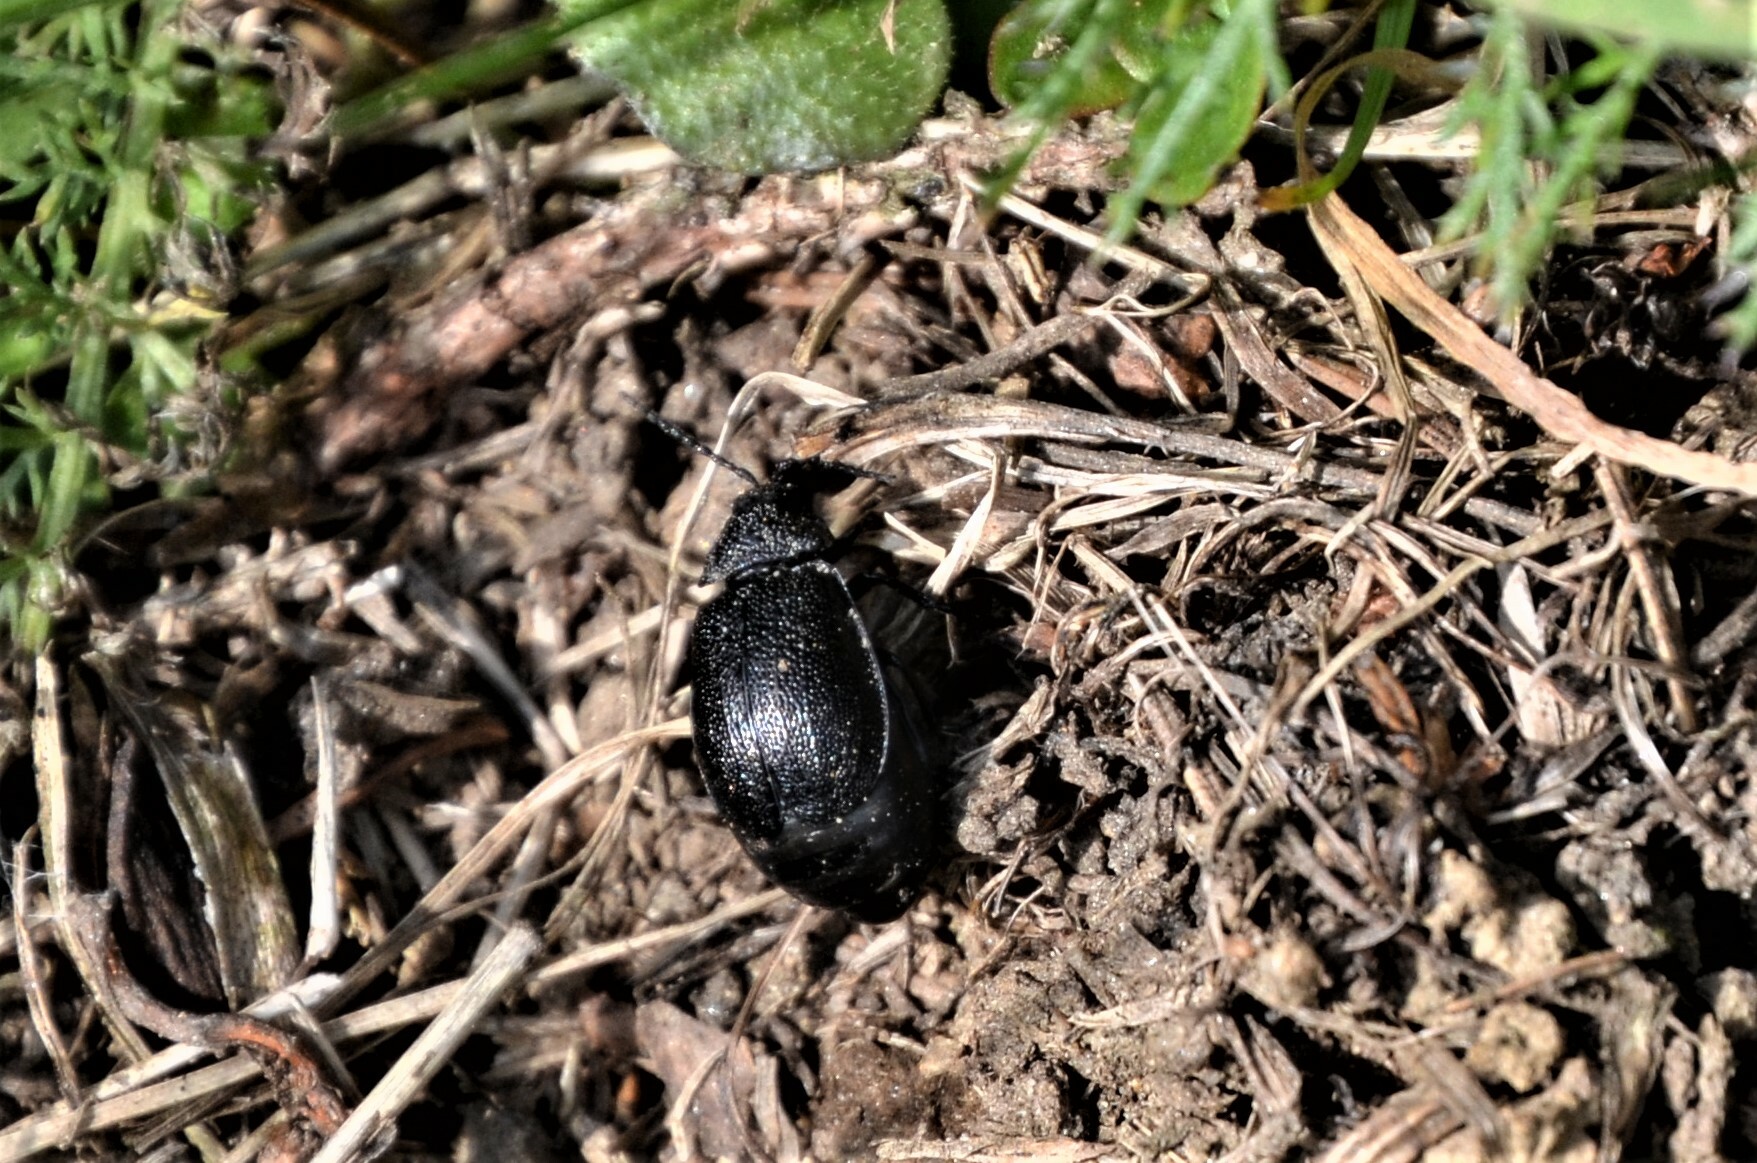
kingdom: Animalia
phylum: Arthropoda
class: Insecta
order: Coleoptera
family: Chrysomelidae
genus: Galeruca
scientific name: Galeruca tanaceti
